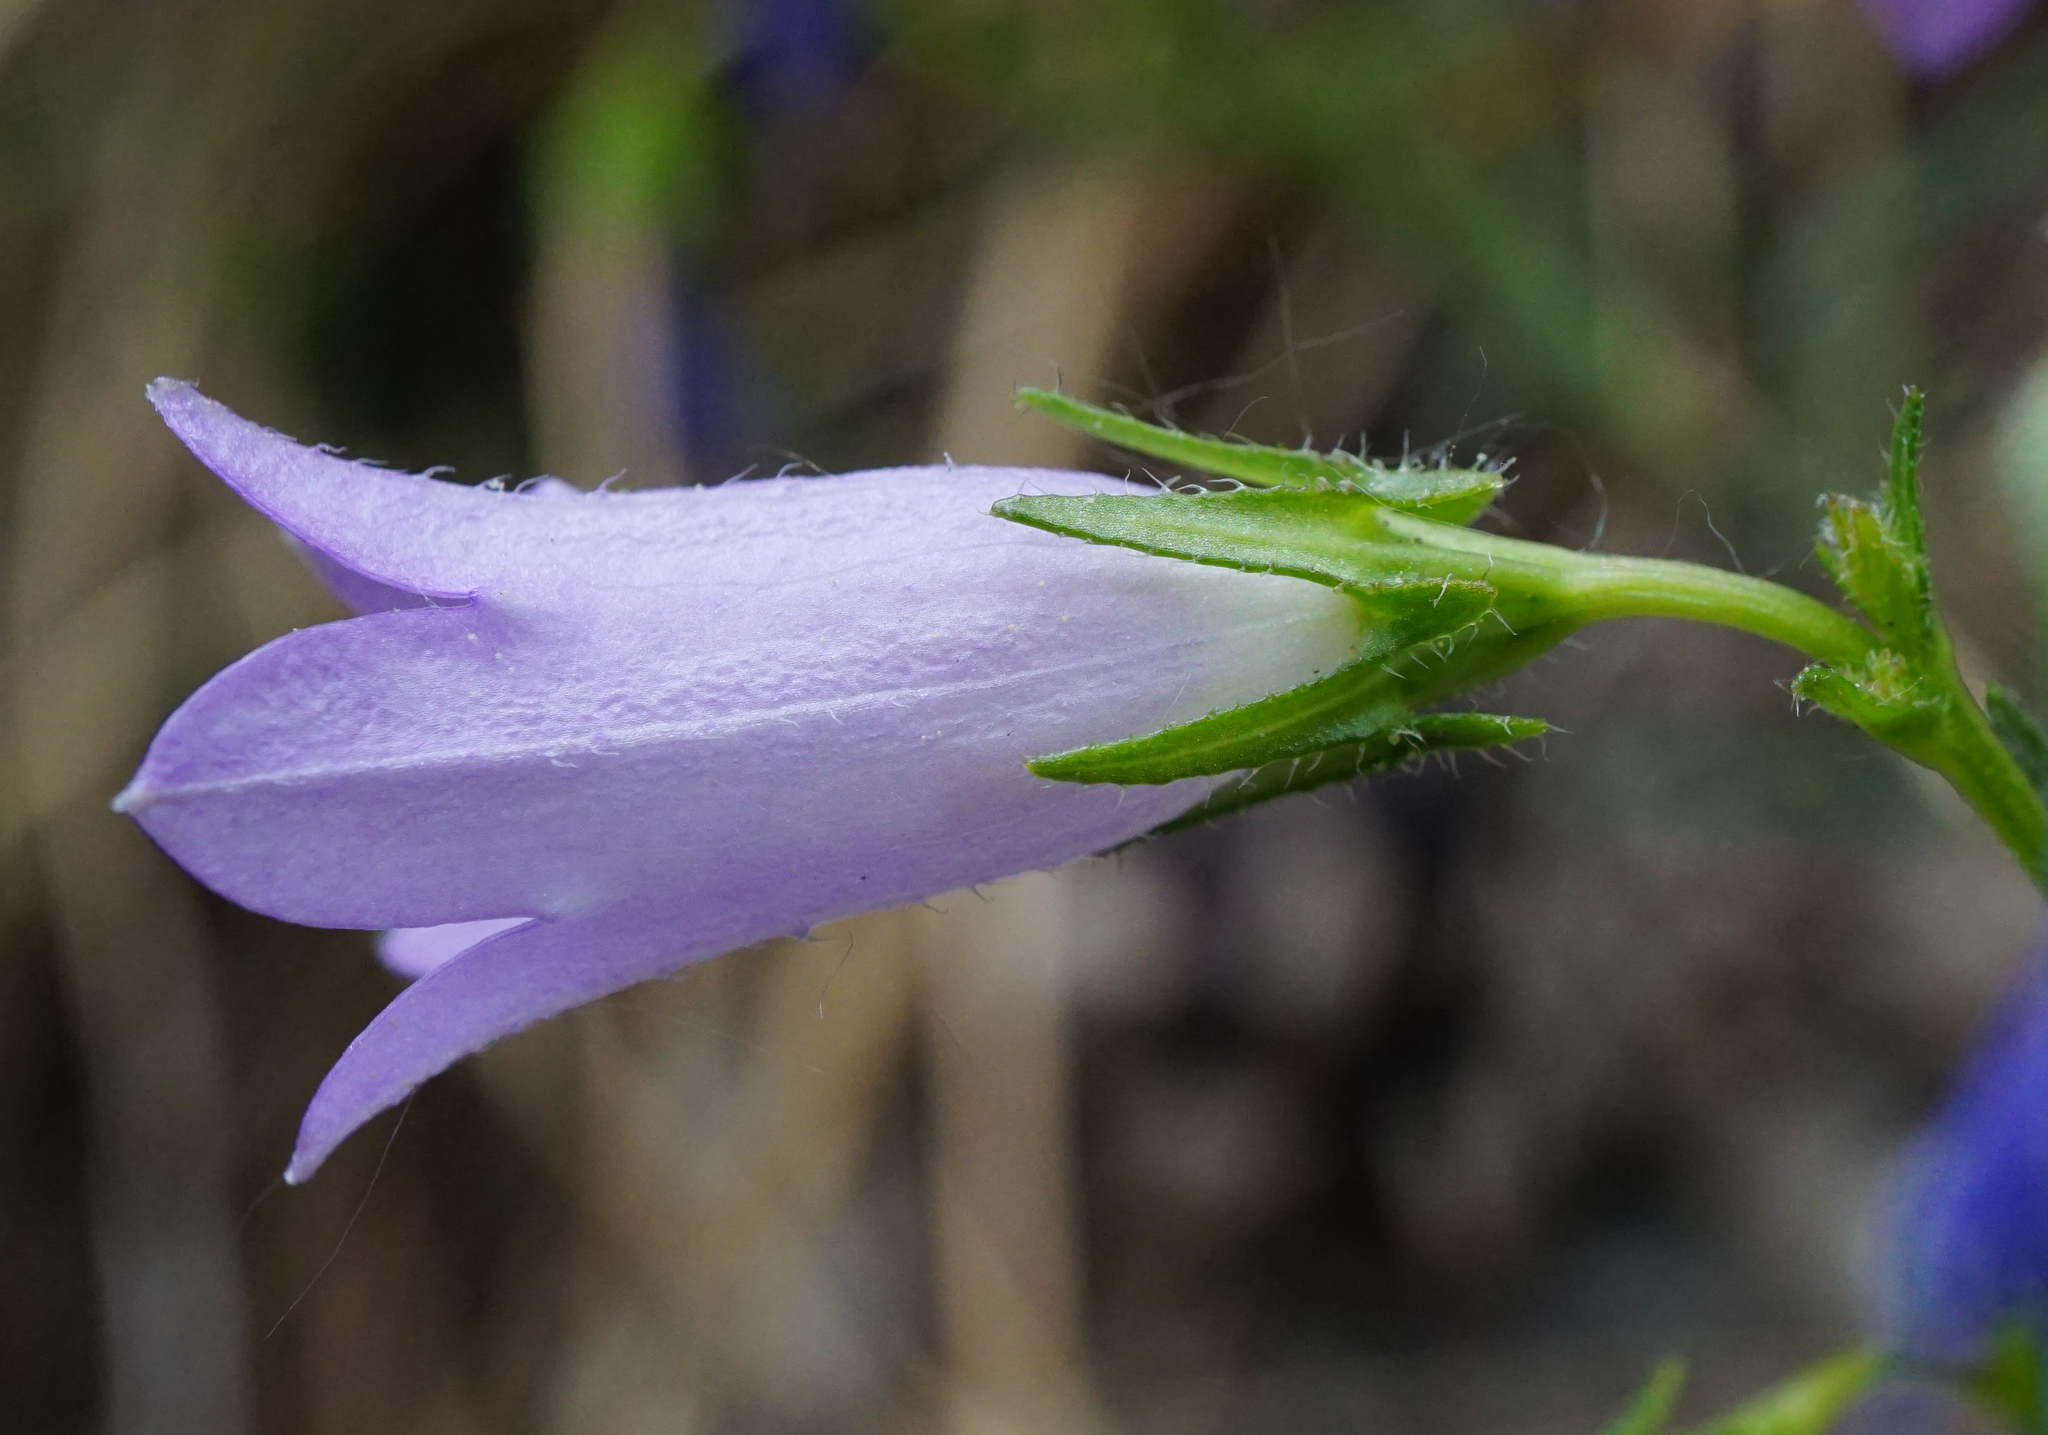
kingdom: Plantae
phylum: Tracheophyta
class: Magnoliopsida
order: Asterales
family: Campanulaceae
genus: Campanula
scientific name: Campanula sibirica
